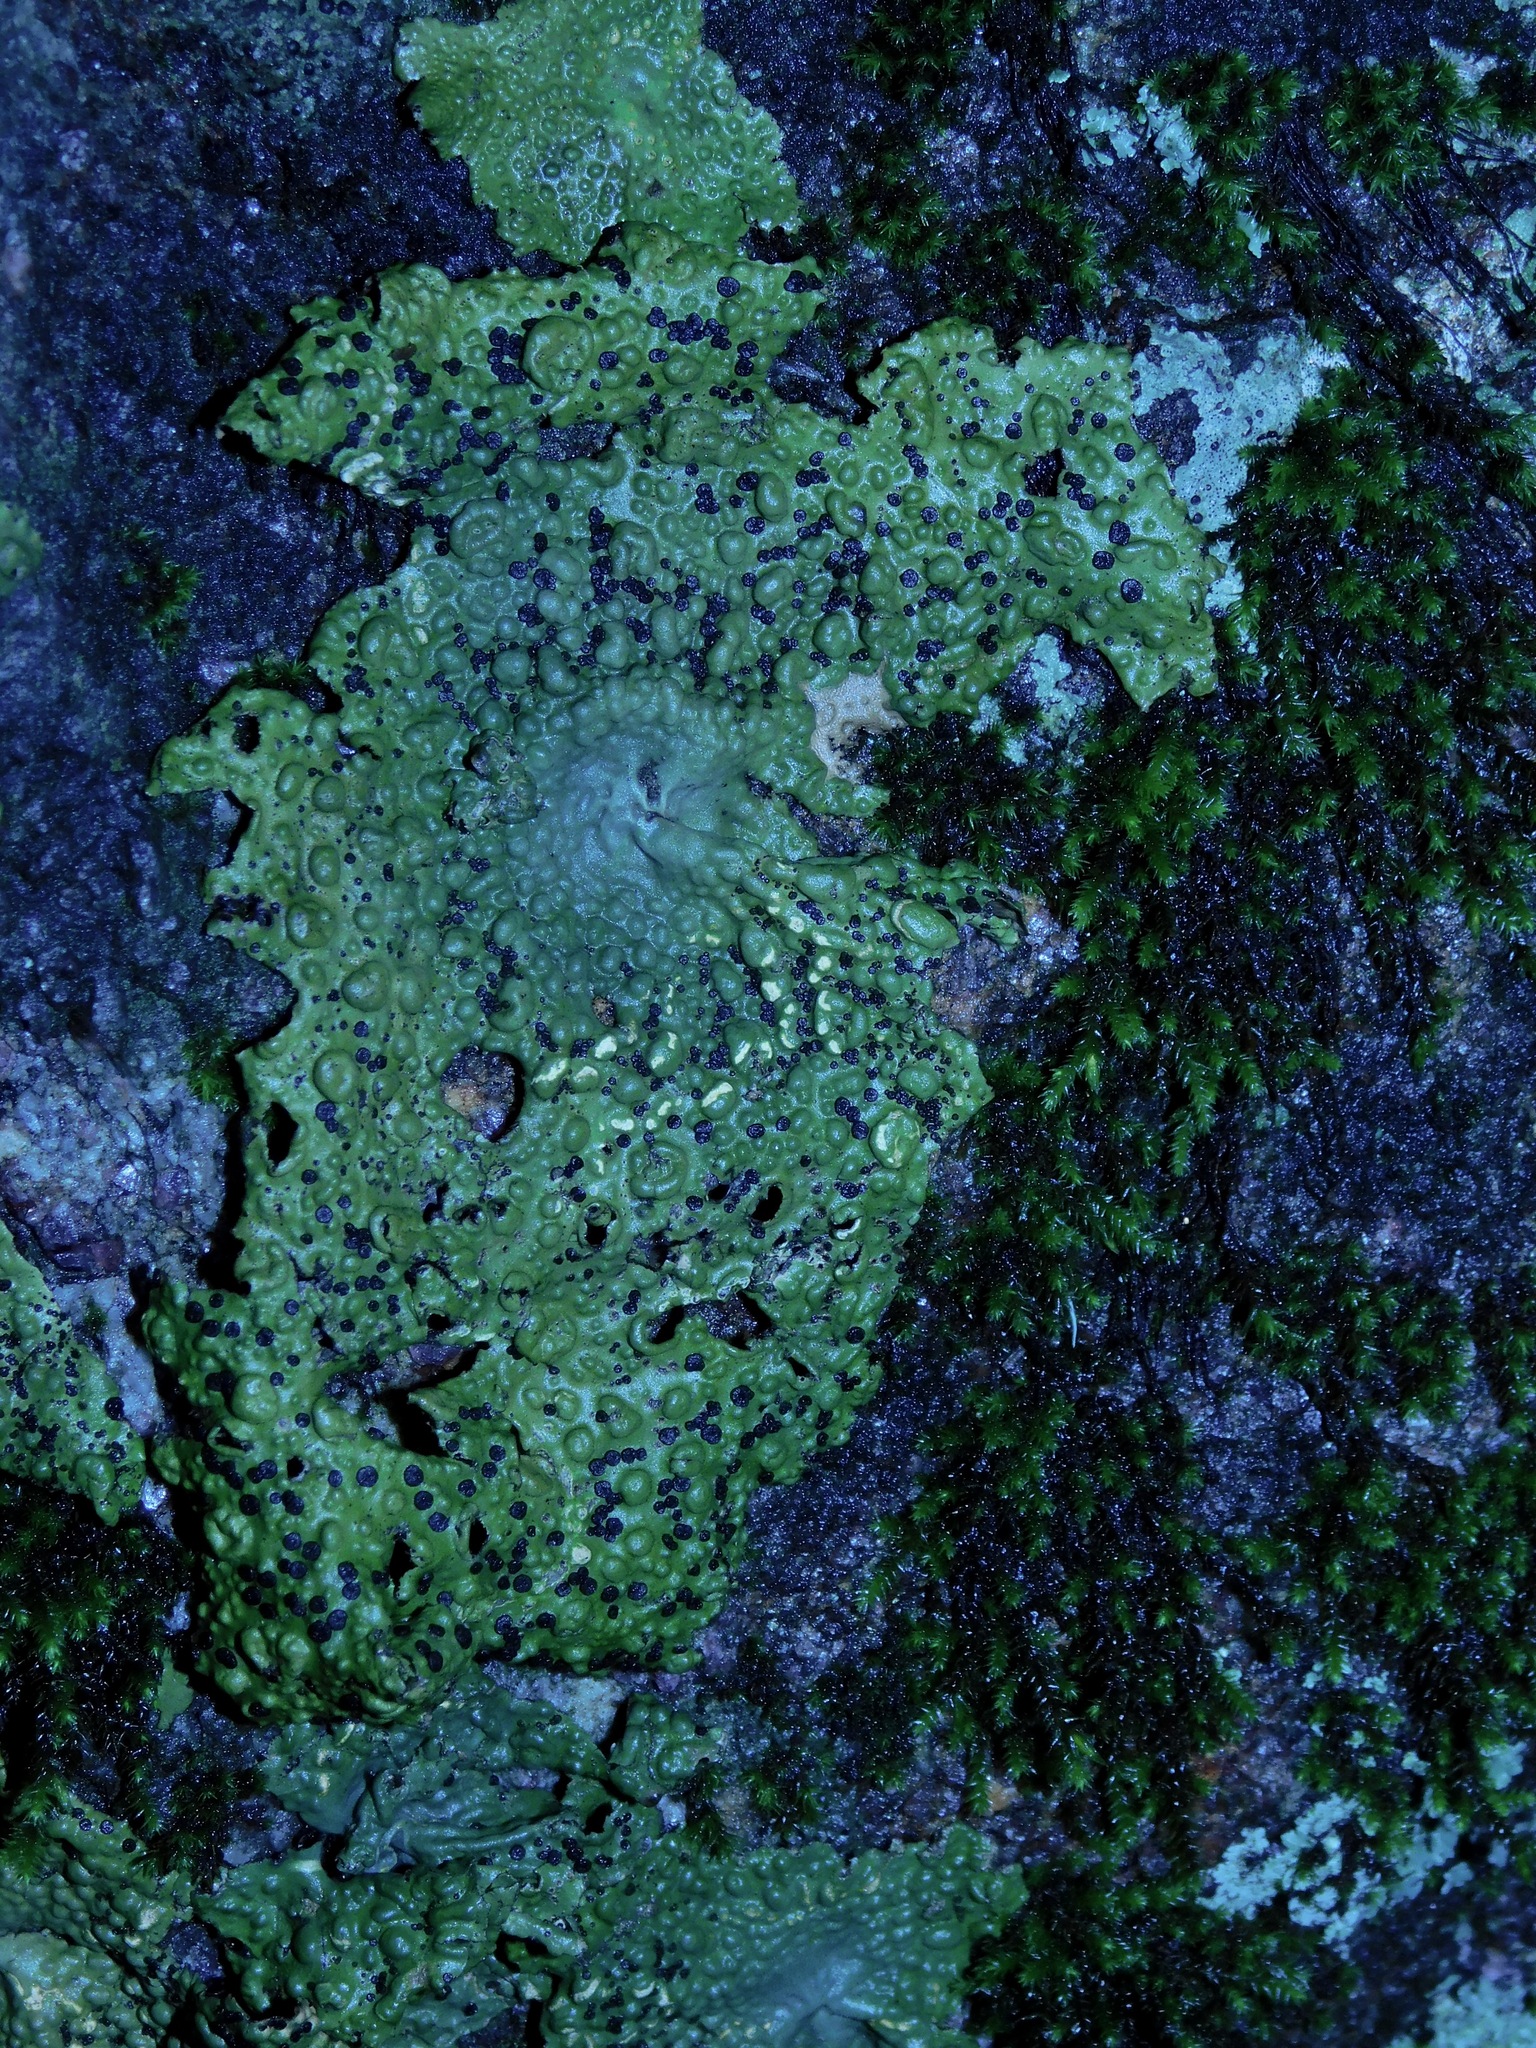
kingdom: Fungi
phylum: Ascomycota
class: Lecanoromycetes
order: Umbilicariales
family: Umbilicariaceae
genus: Lasallia
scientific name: Lasallia papulosa
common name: Common toadskin lichen
